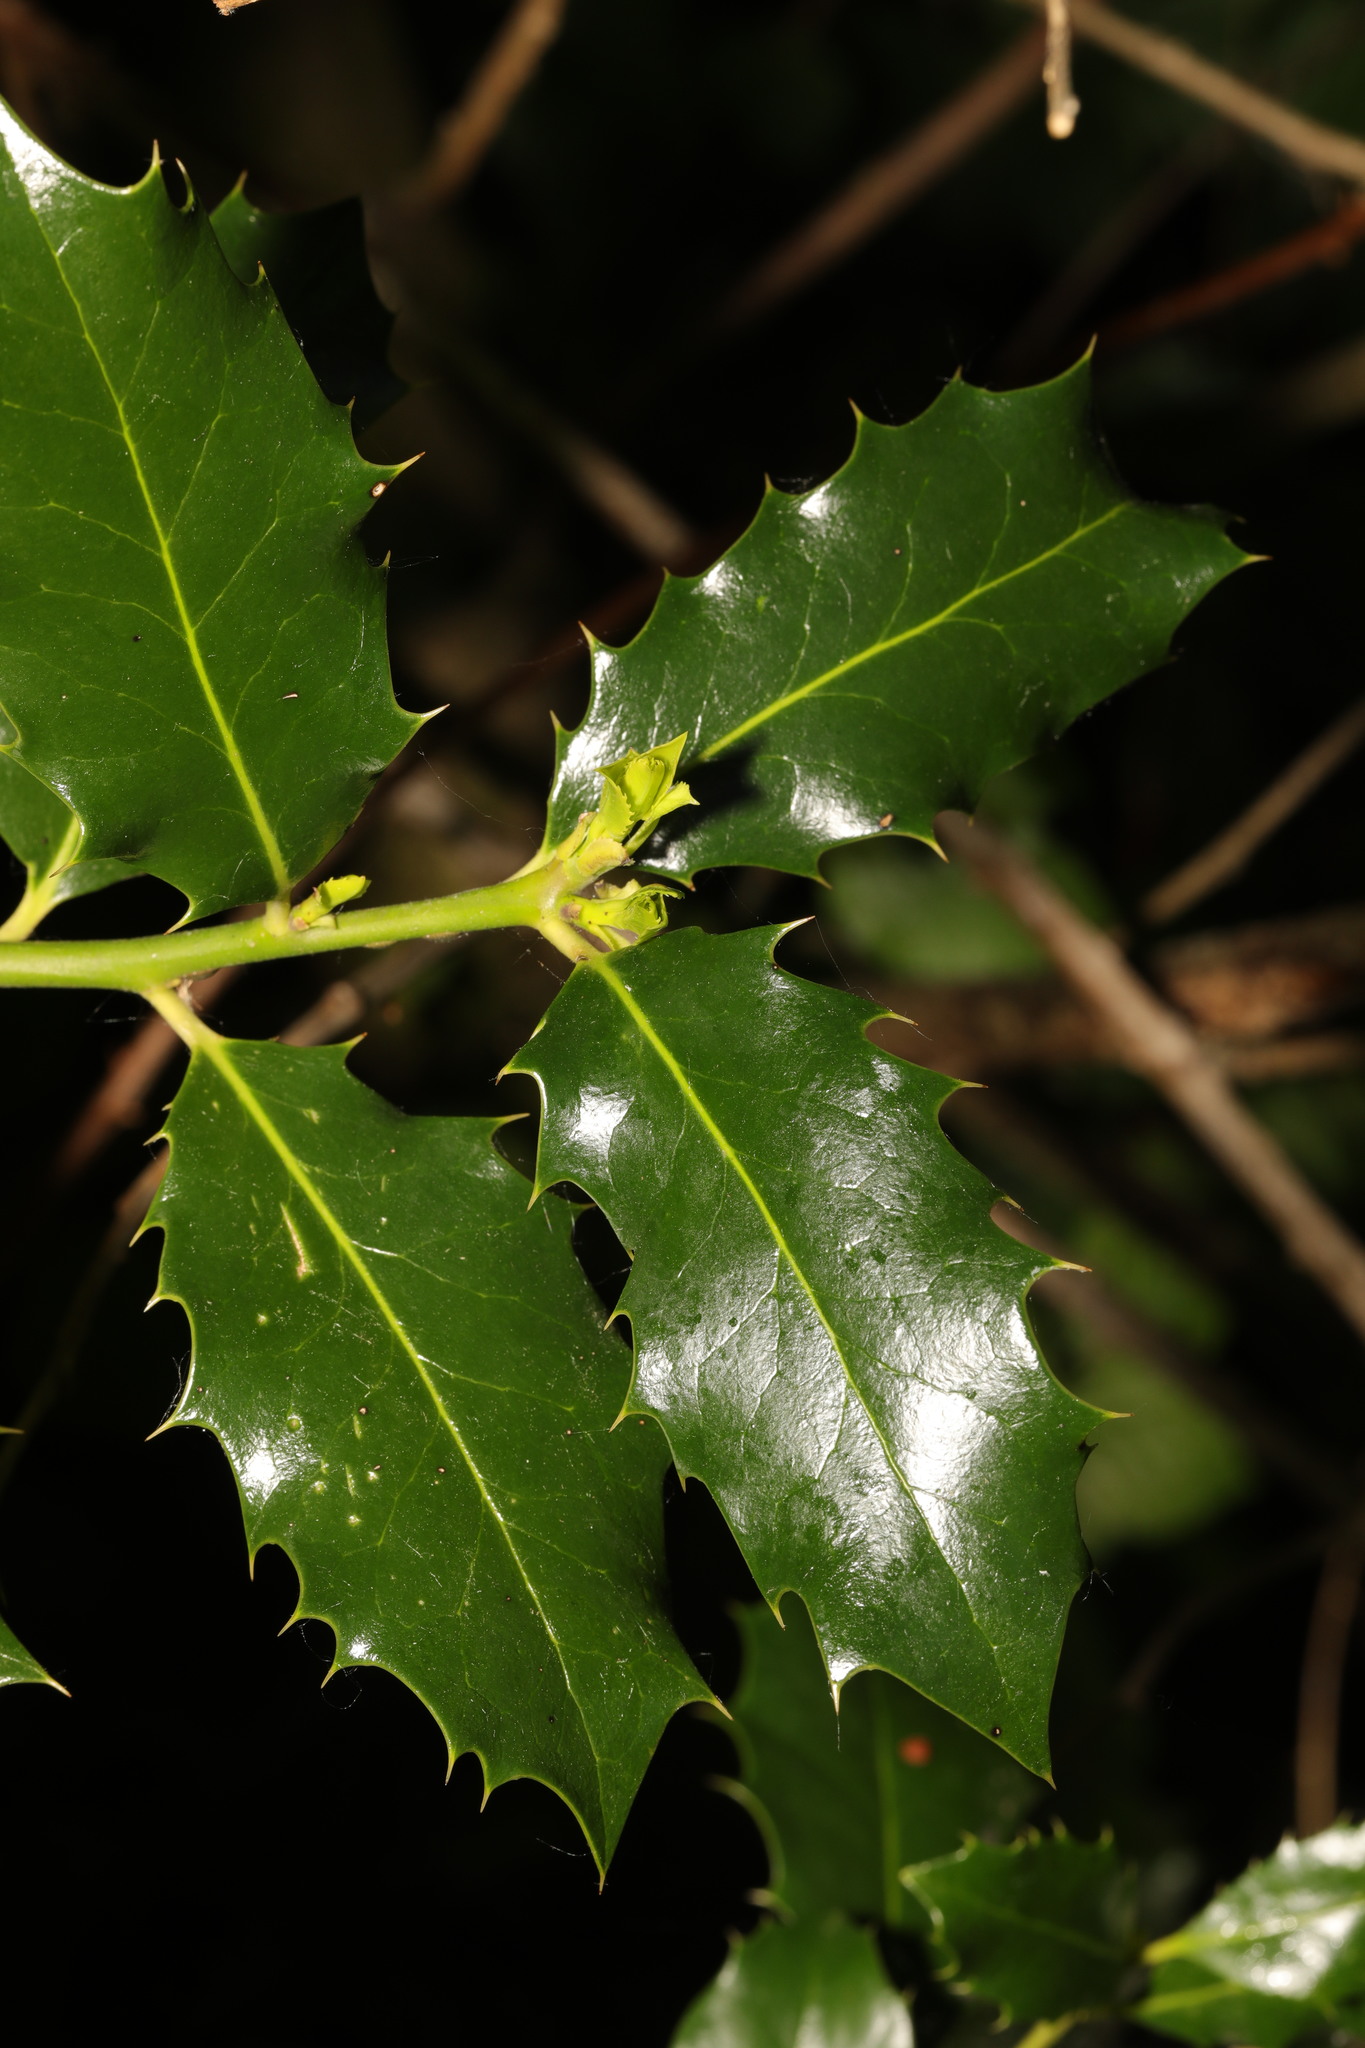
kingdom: Plantae
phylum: Tracheophyta
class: Magnoliopsida
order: Aquifoliales
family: Aquifoliaceae
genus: Ilex
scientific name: Ilex aquifolium
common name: English holly
